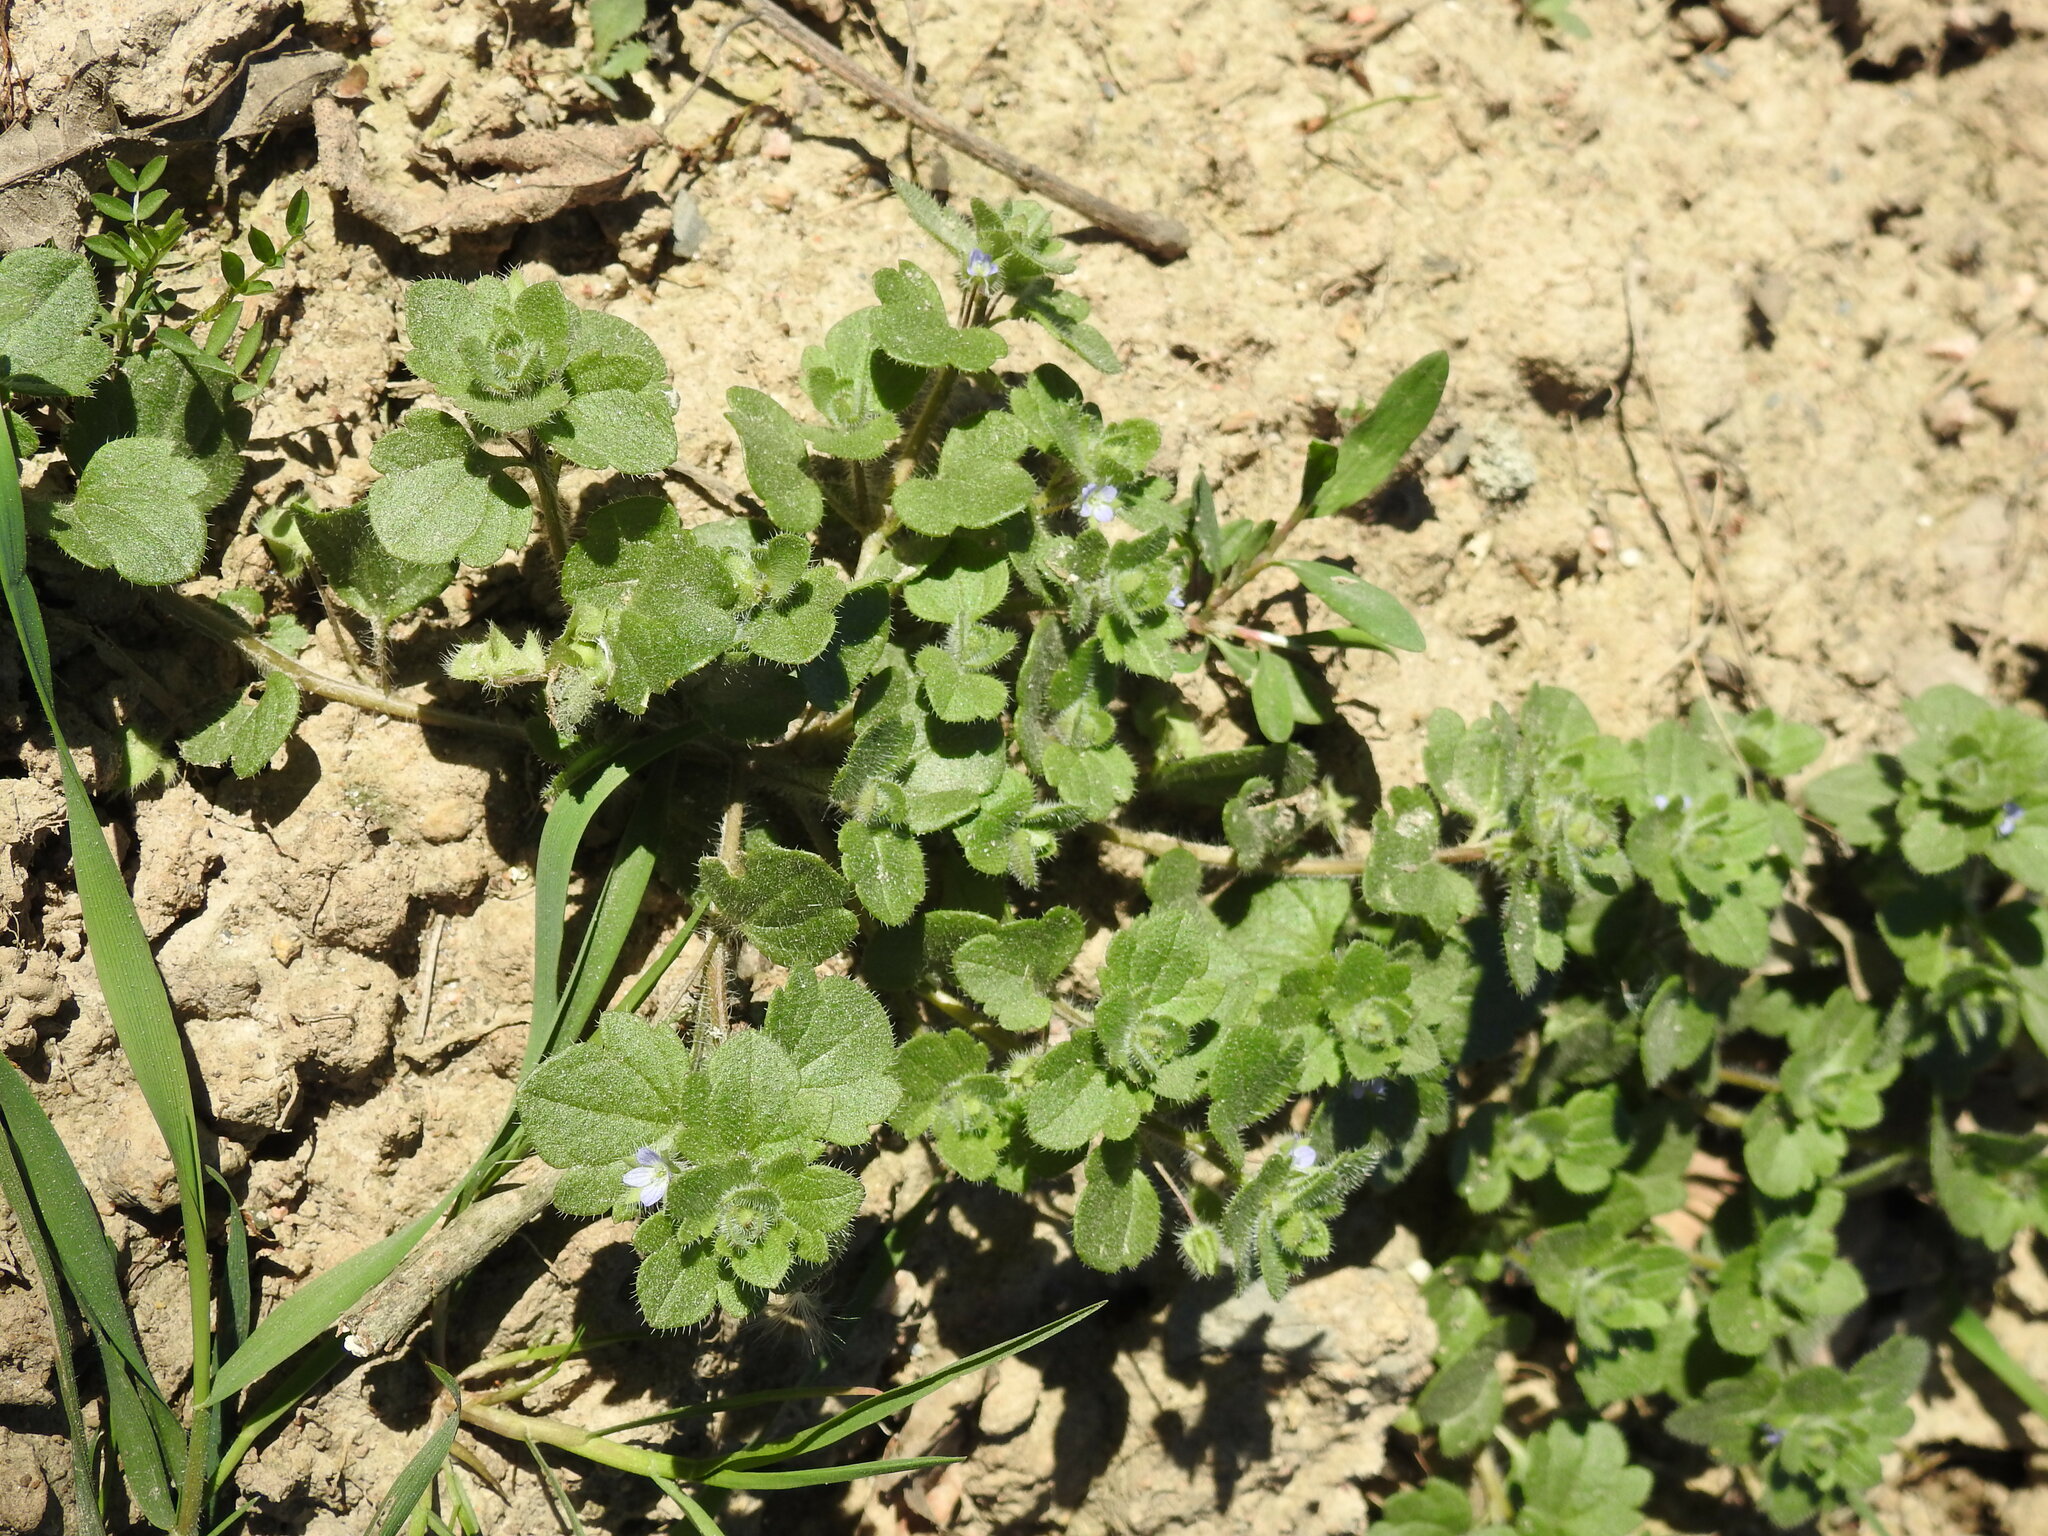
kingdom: Plantae
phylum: Tracheophyta
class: Magnoliopsida
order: Lamiales
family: Plantaginaceae
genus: Veronica
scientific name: Veronica hederifolia
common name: Ivy-leaved speedwell
